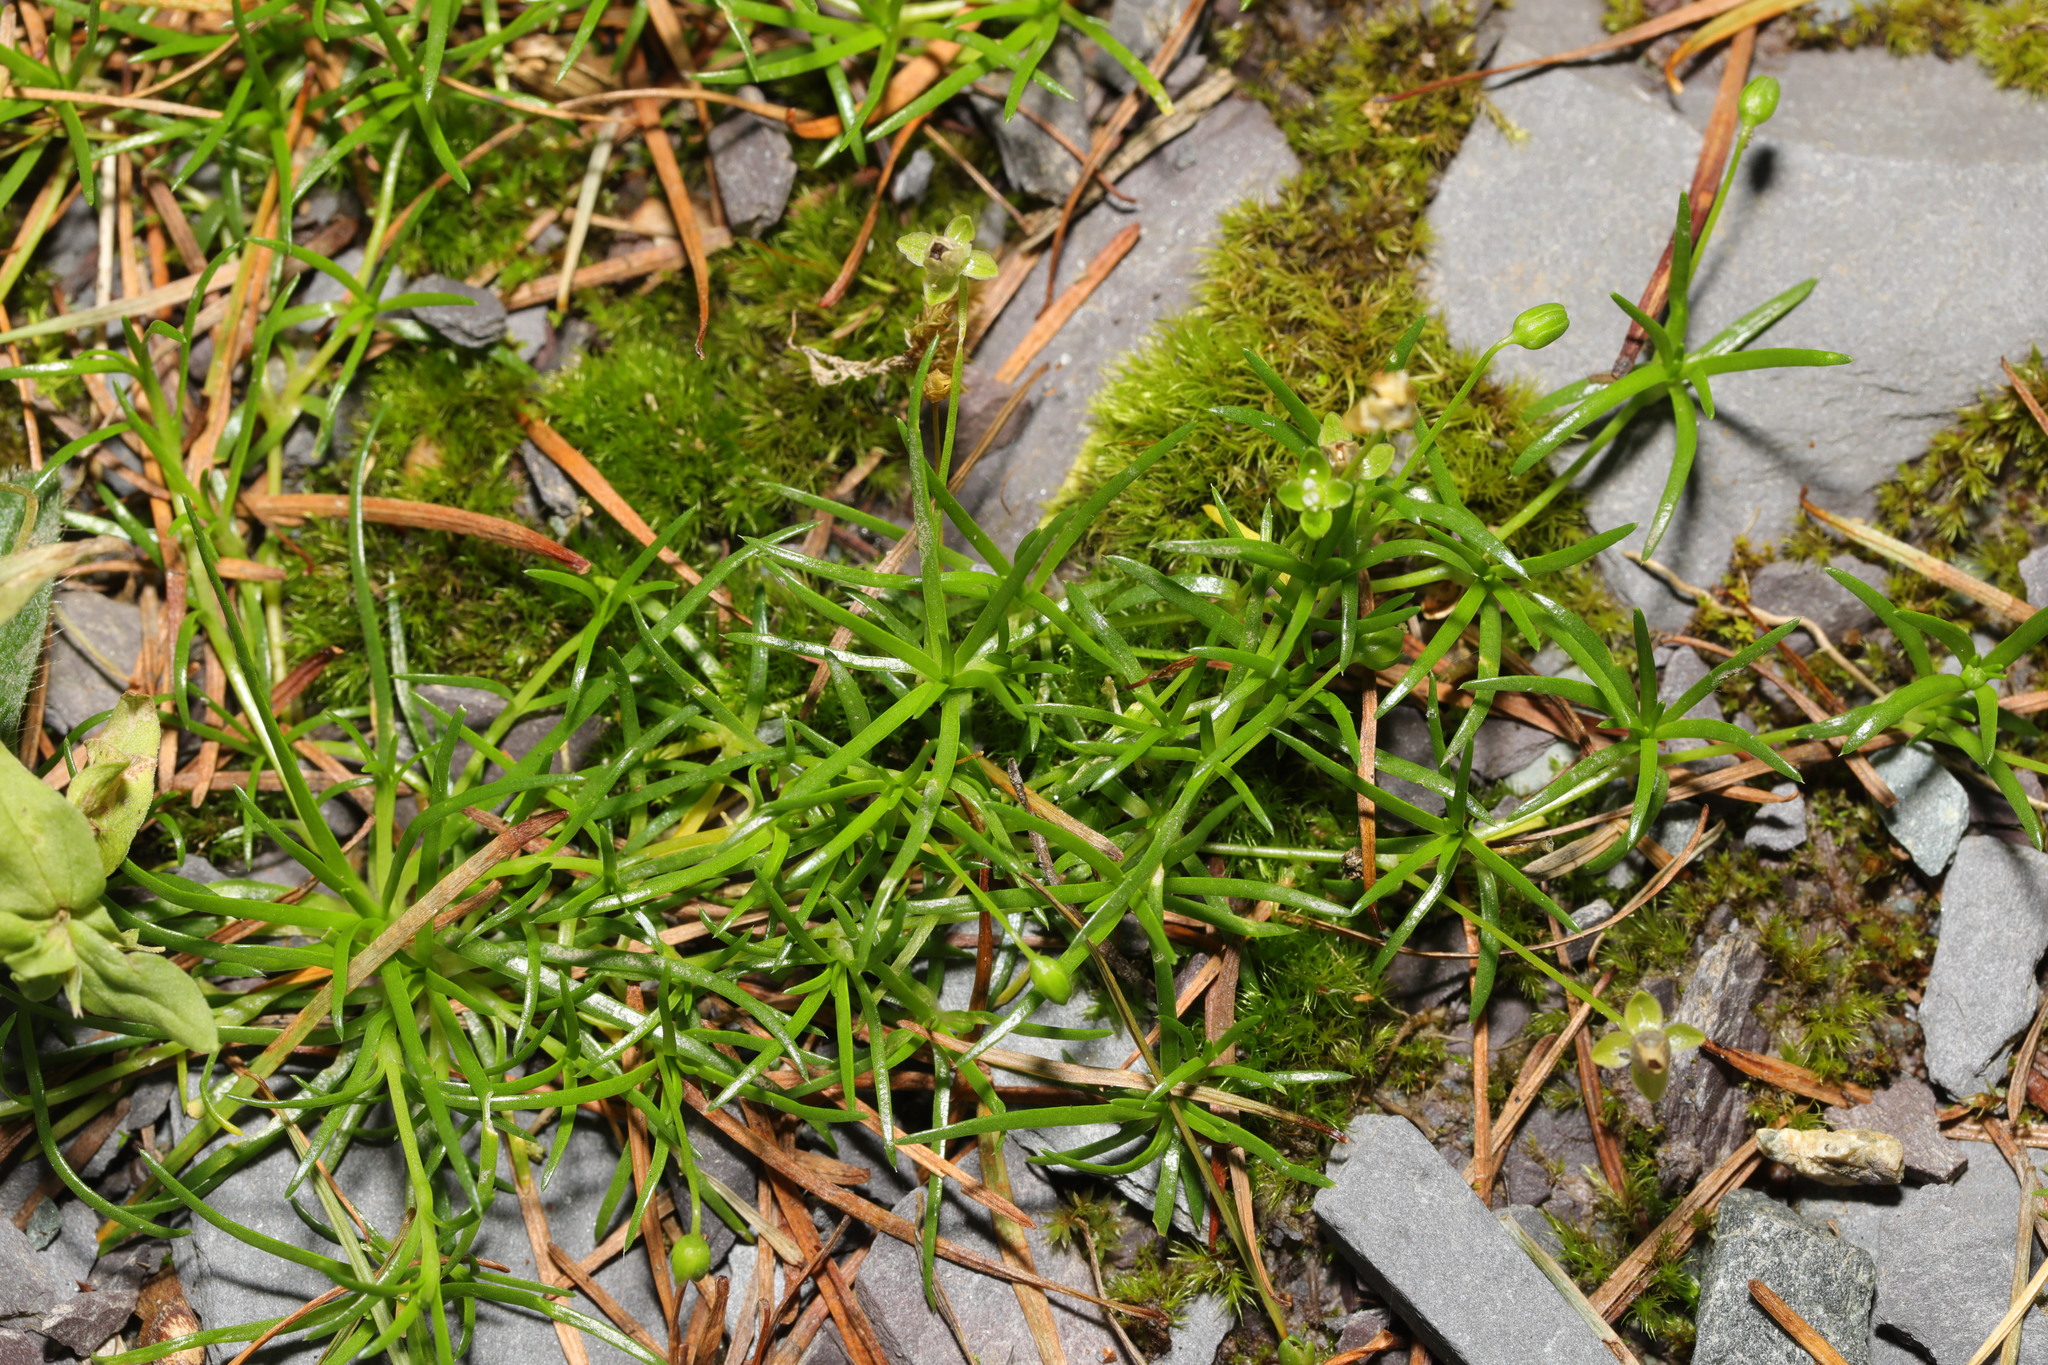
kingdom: Plantae
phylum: Tracheophyta
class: Magnoliopsida
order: Caryophyllales
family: Caryophyllaceae
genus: Sagina
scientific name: Sagina procumbens
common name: Procumbent pearlwort
